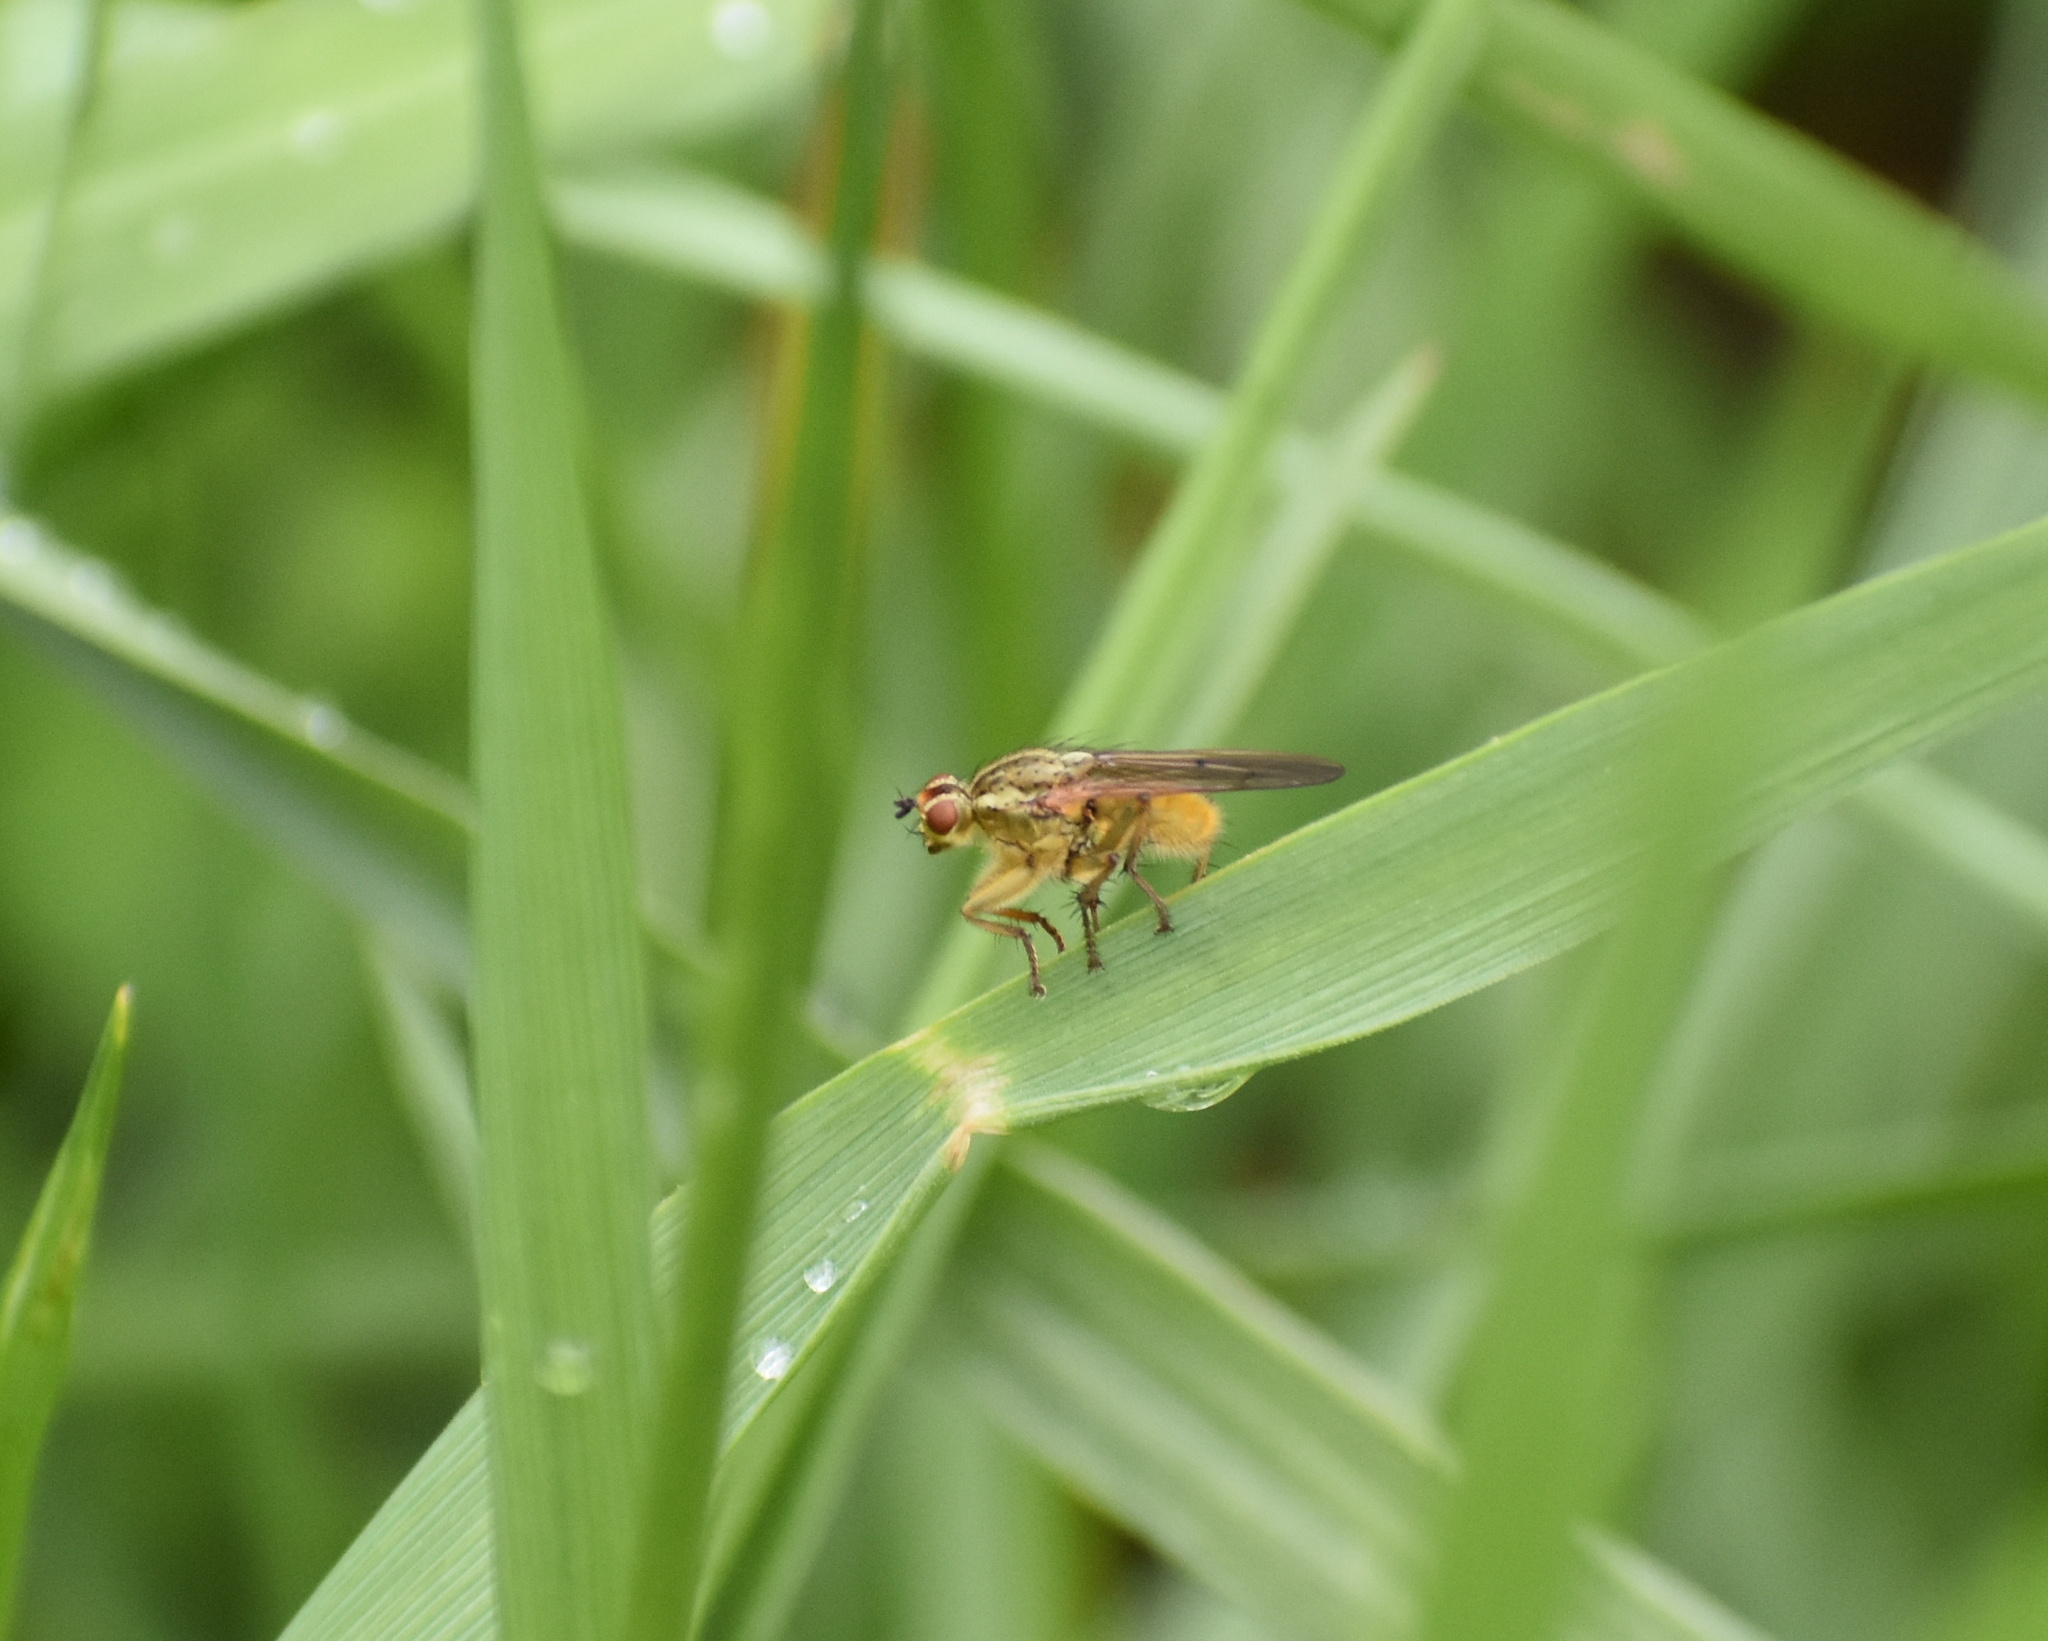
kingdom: Animalia
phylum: Arthropoda
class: Insecta
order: Diptera
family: Scathophagidae
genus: Scathophaga
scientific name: Scathophaga stercoraria
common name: Yellow dung fly
